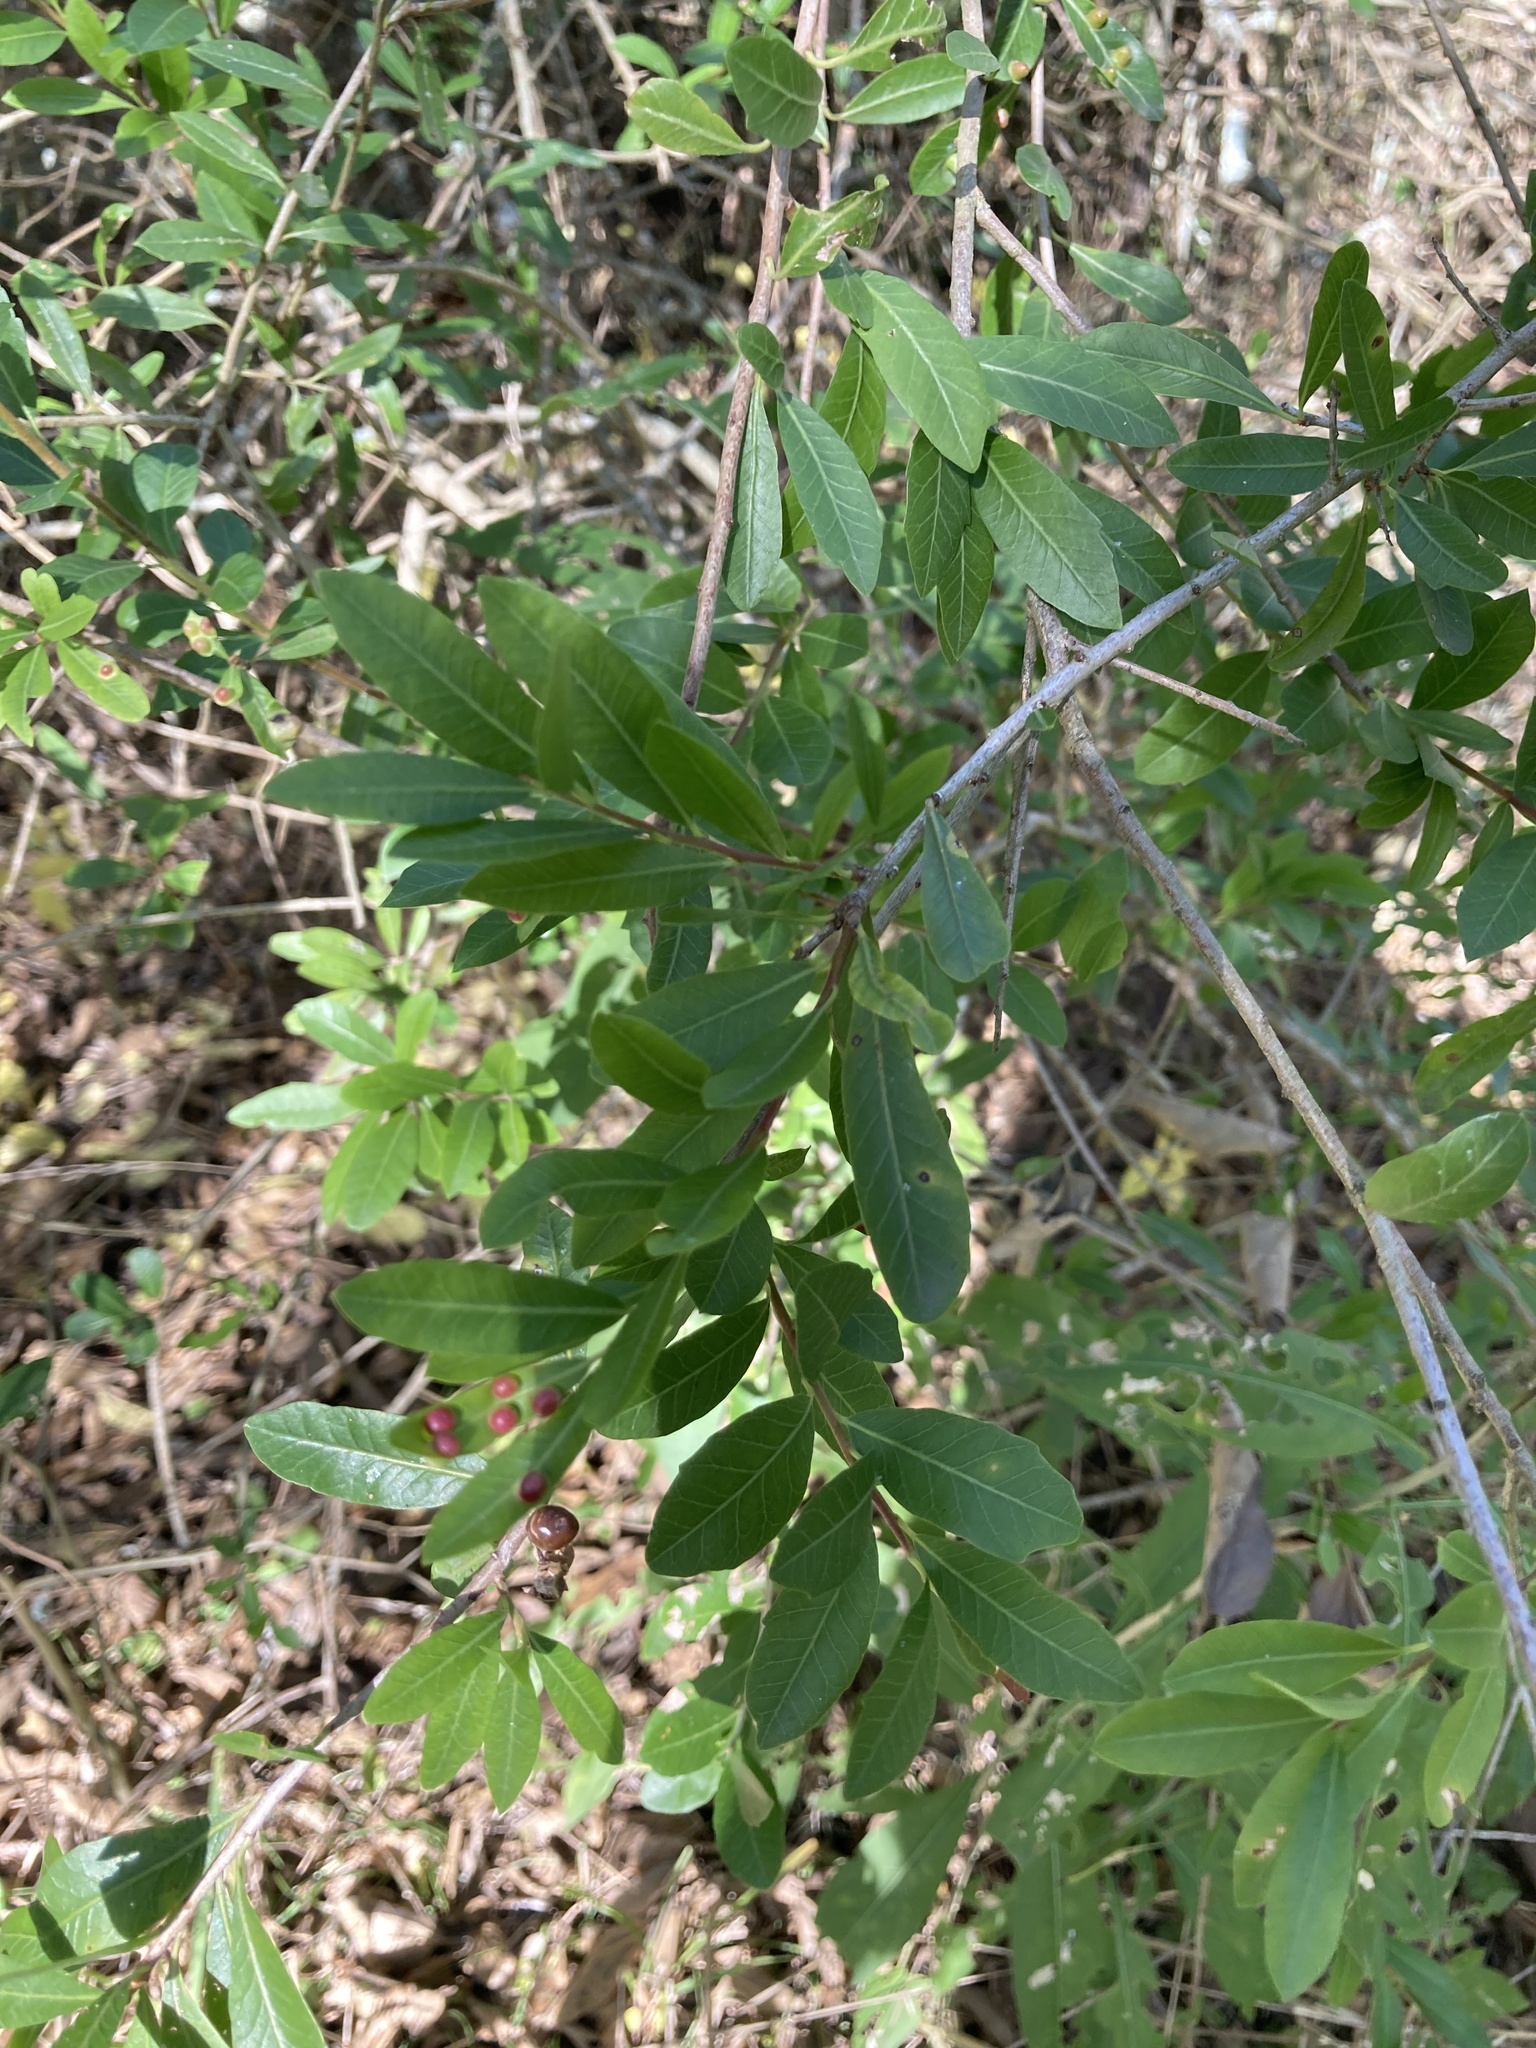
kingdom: Plantae
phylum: Tracheophyta
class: Magnoliopsida
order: Sapindales
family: Anacardiaceae
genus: Schinus
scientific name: Schinus longifolia
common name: Longleaf peppertree
